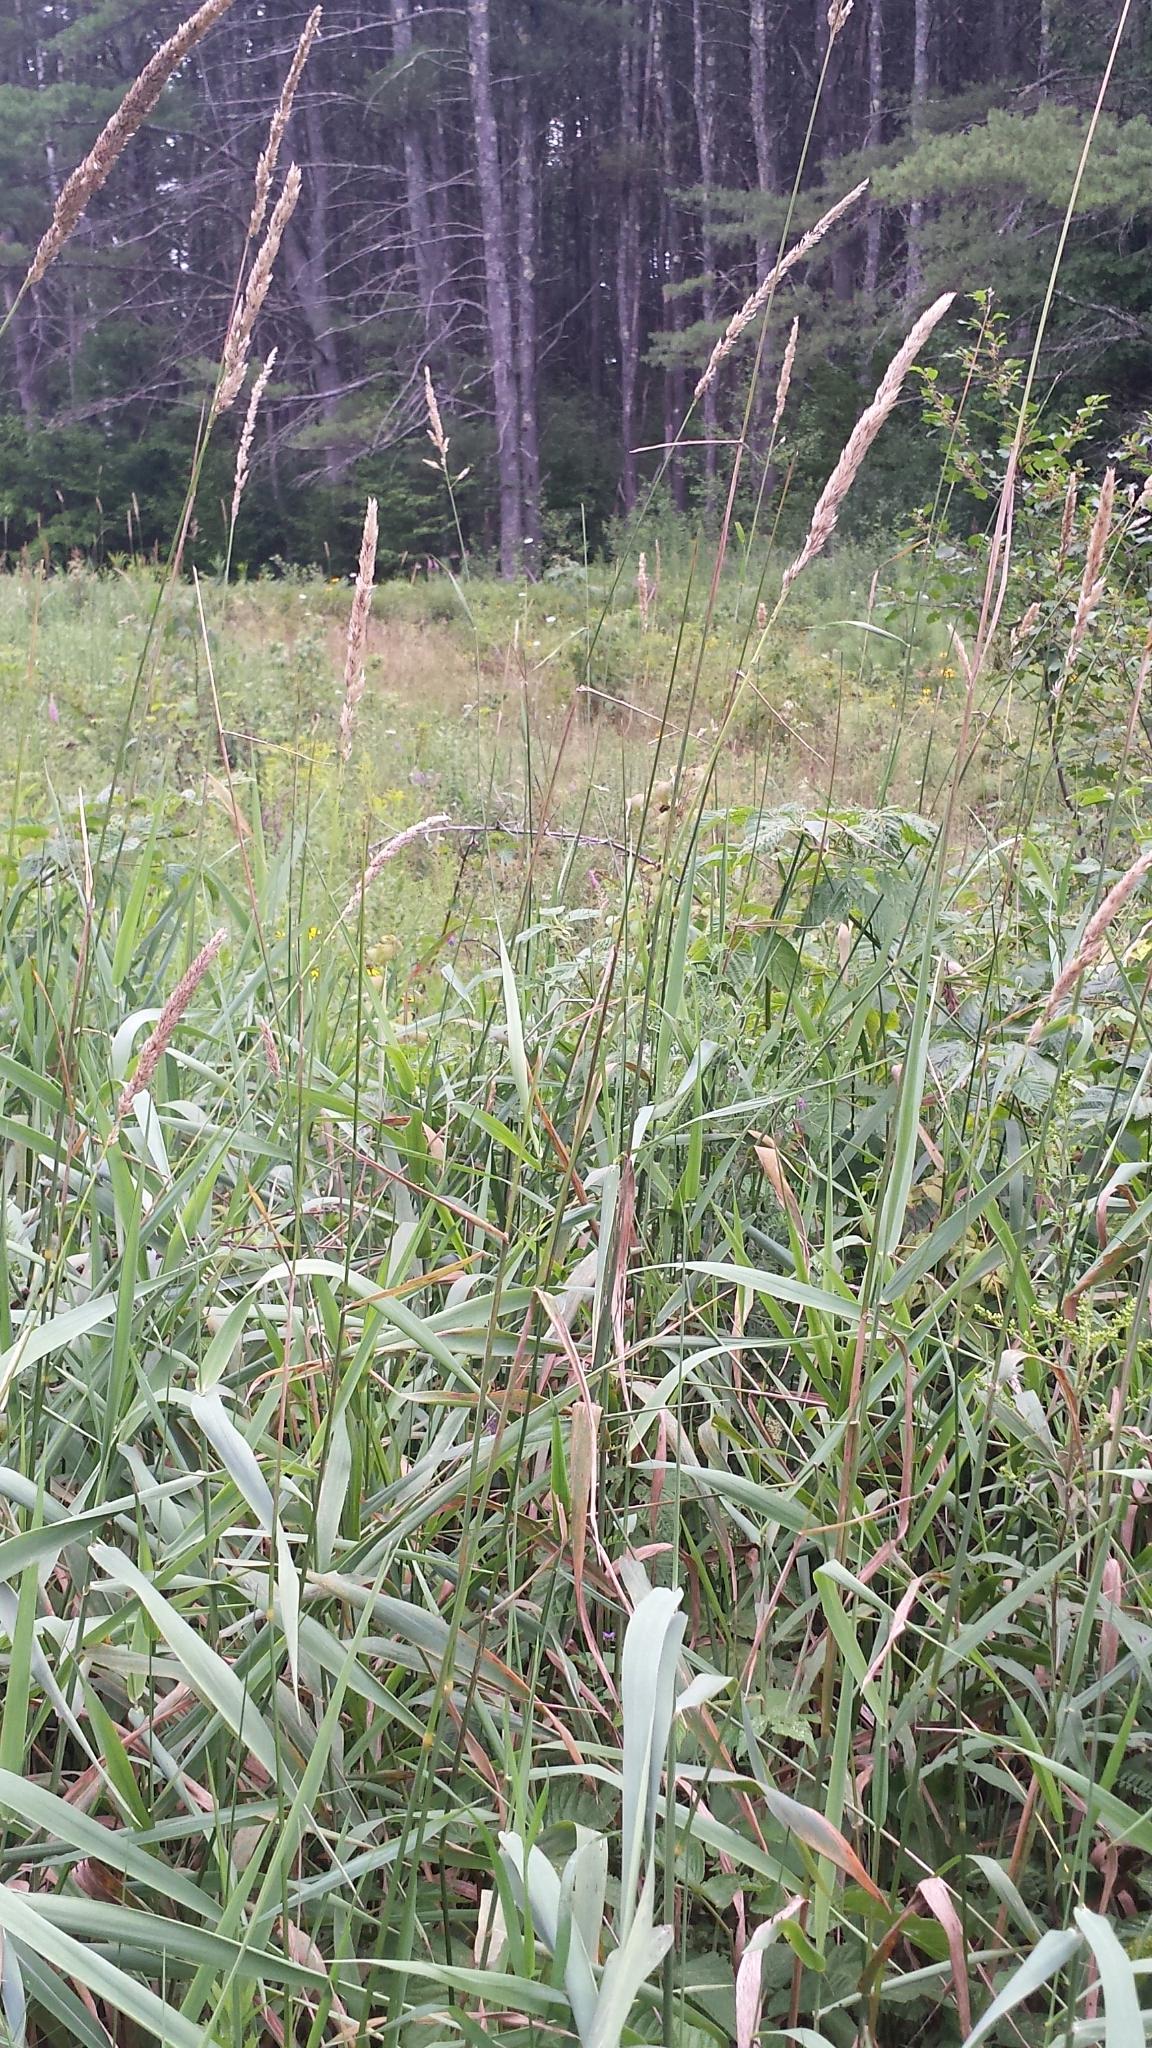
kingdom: Plantae
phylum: Tracheophyta
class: Liliopsida
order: Poales
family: Poaceae
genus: Phalaris
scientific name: Phalaris arundinacea
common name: Reed canary-grass
